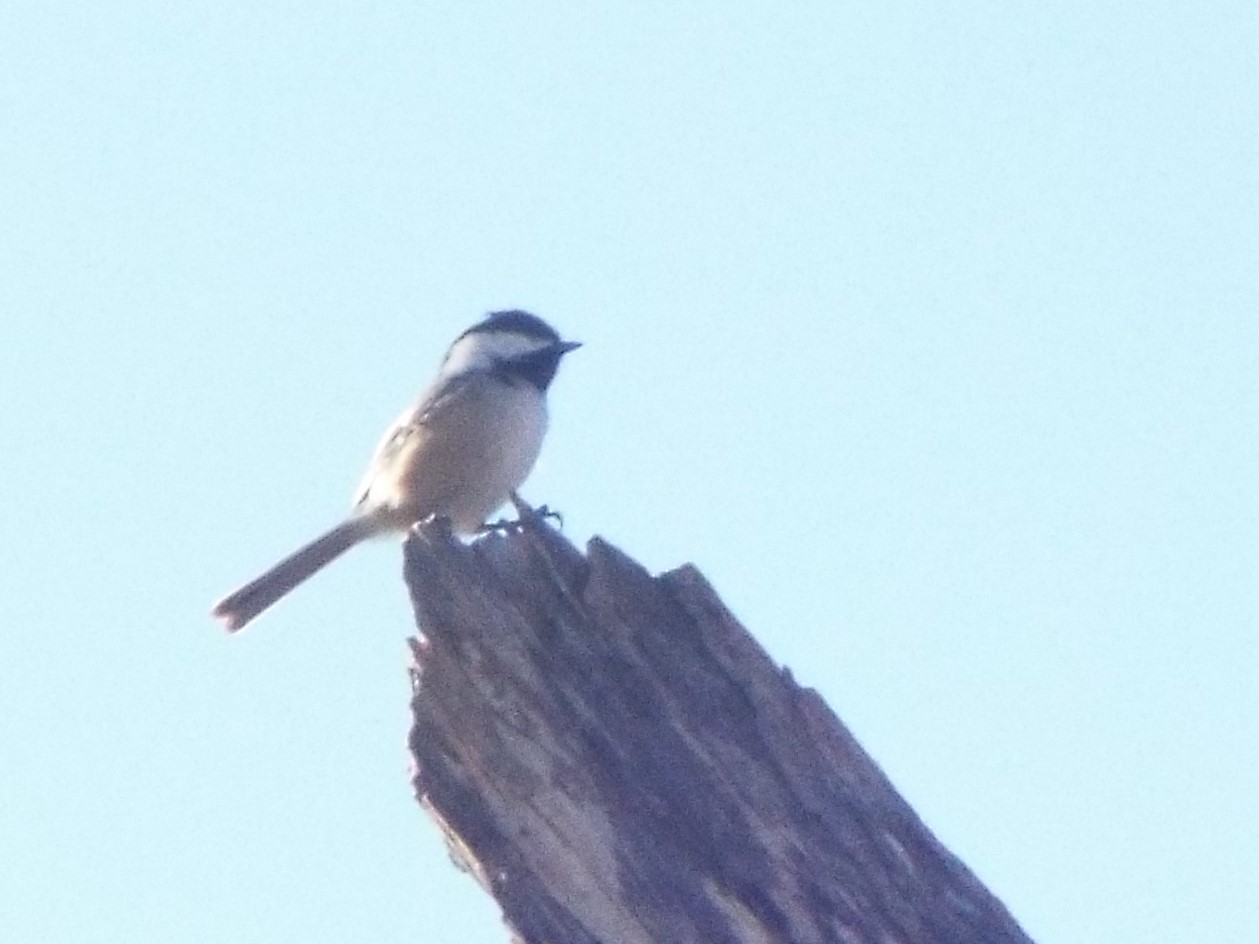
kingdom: Animalia
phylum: Chordata
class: Aves
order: Passeriformes
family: Paridae
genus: Poecile
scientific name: Poecile atricapillus
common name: Black-capped chickadee
